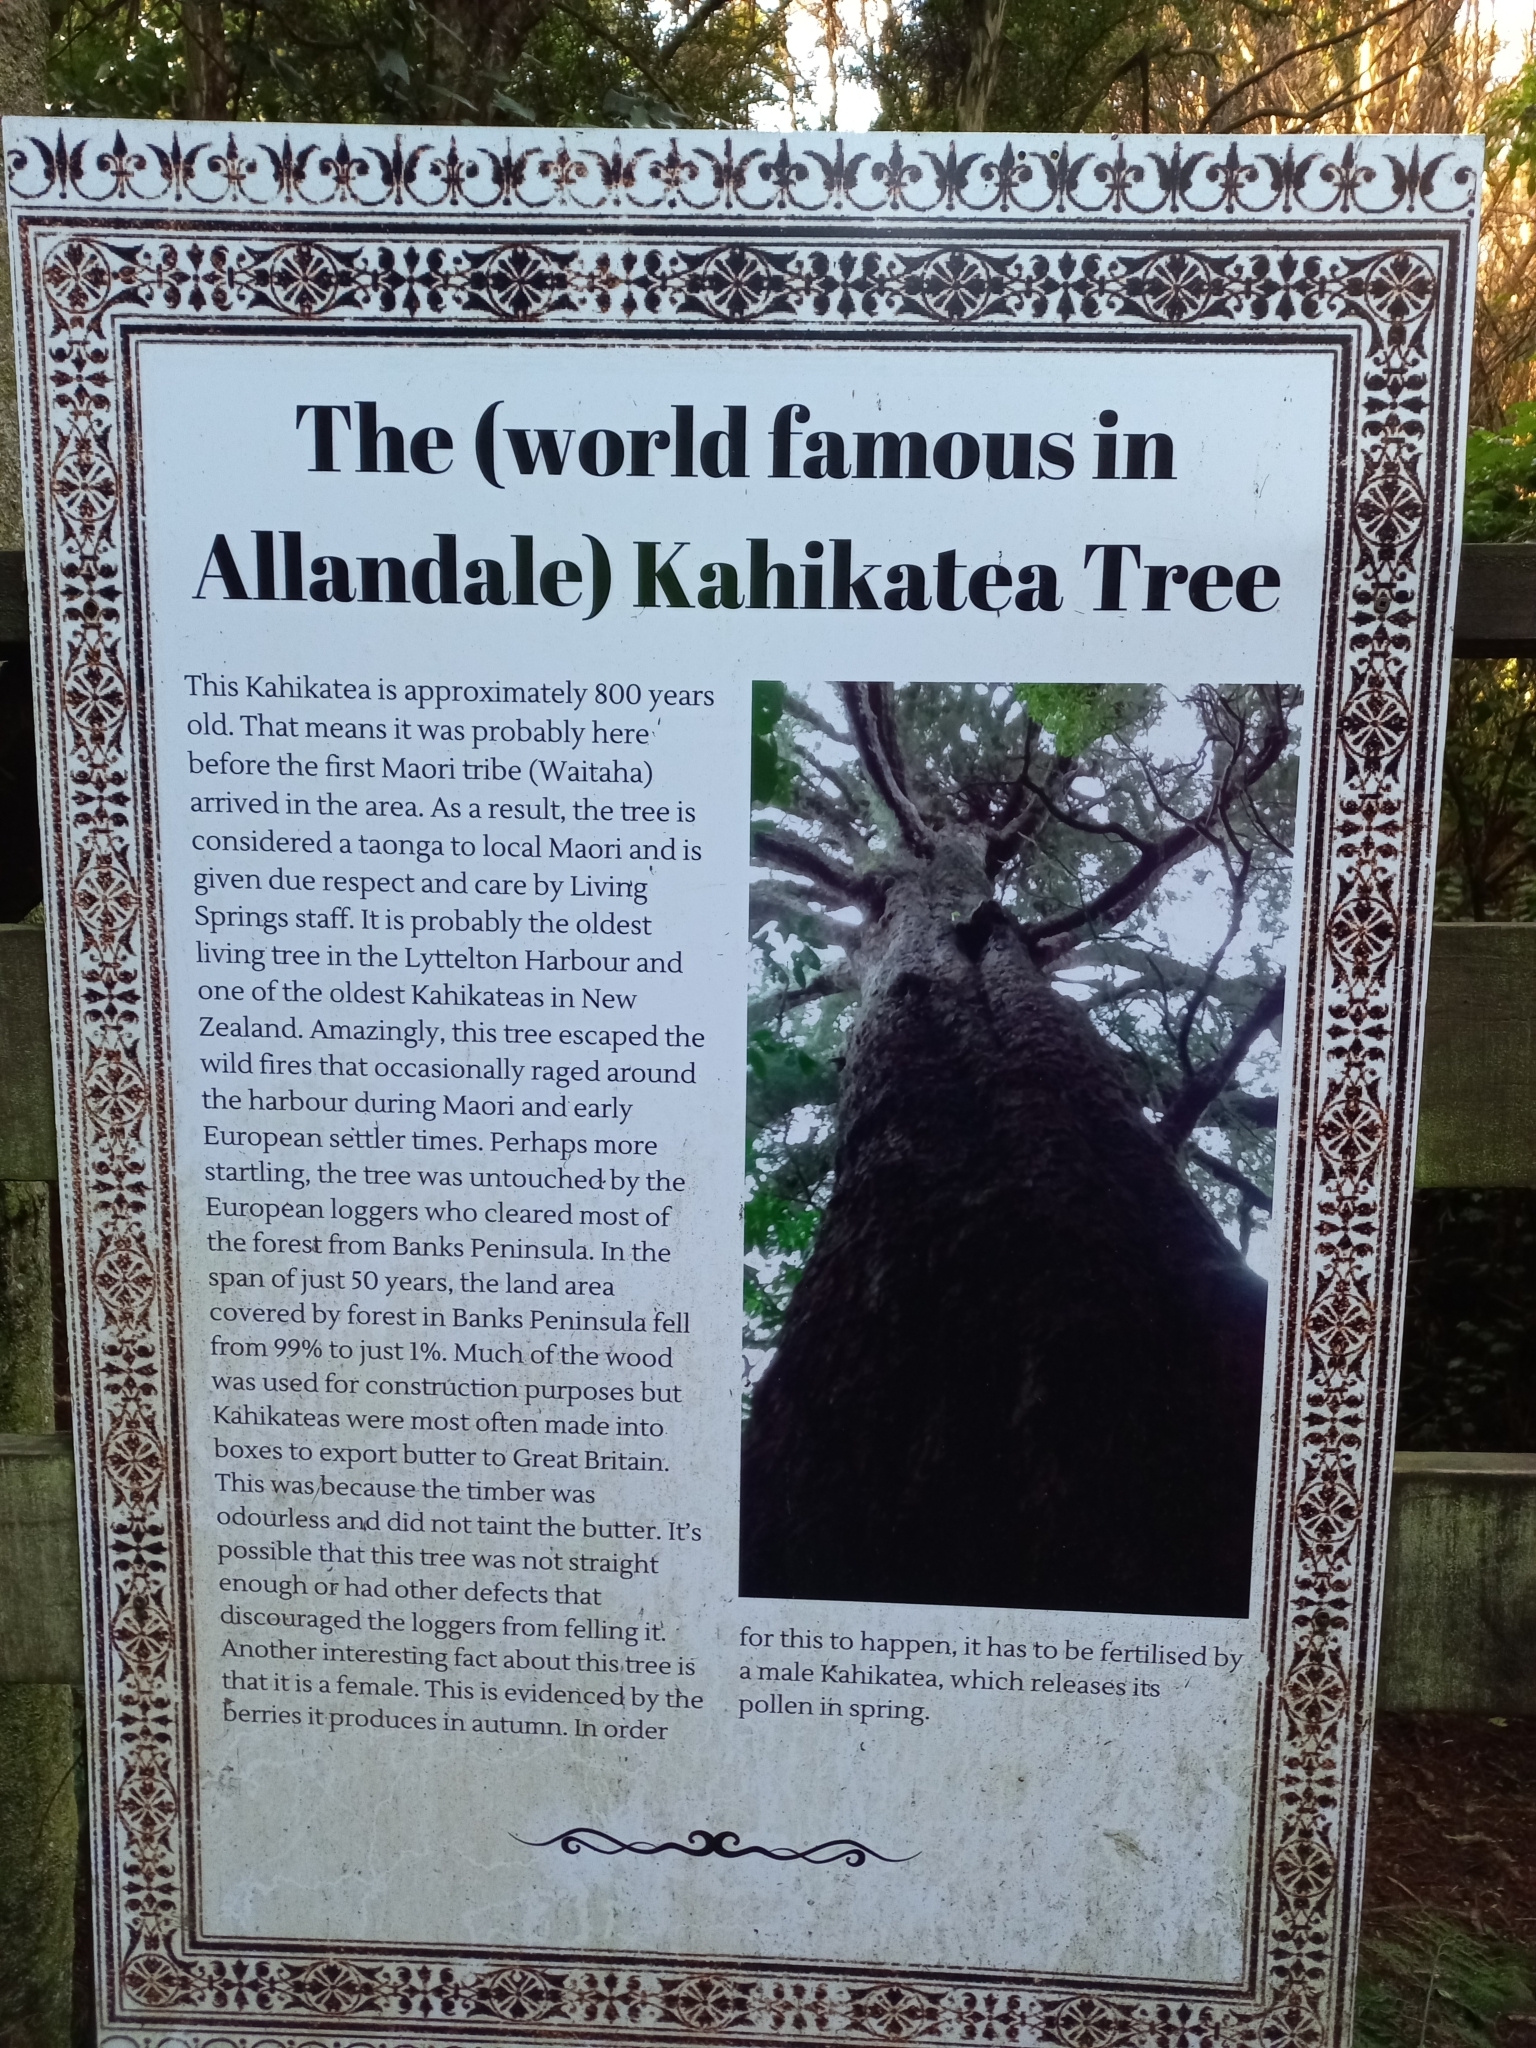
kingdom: Plantae
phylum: Tracheophyta
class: Pinopsida
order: Pinales
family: Podocarpaceae
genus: Dacrycarpus
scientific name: Dacrycarpus dacrydioides
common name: White pine
